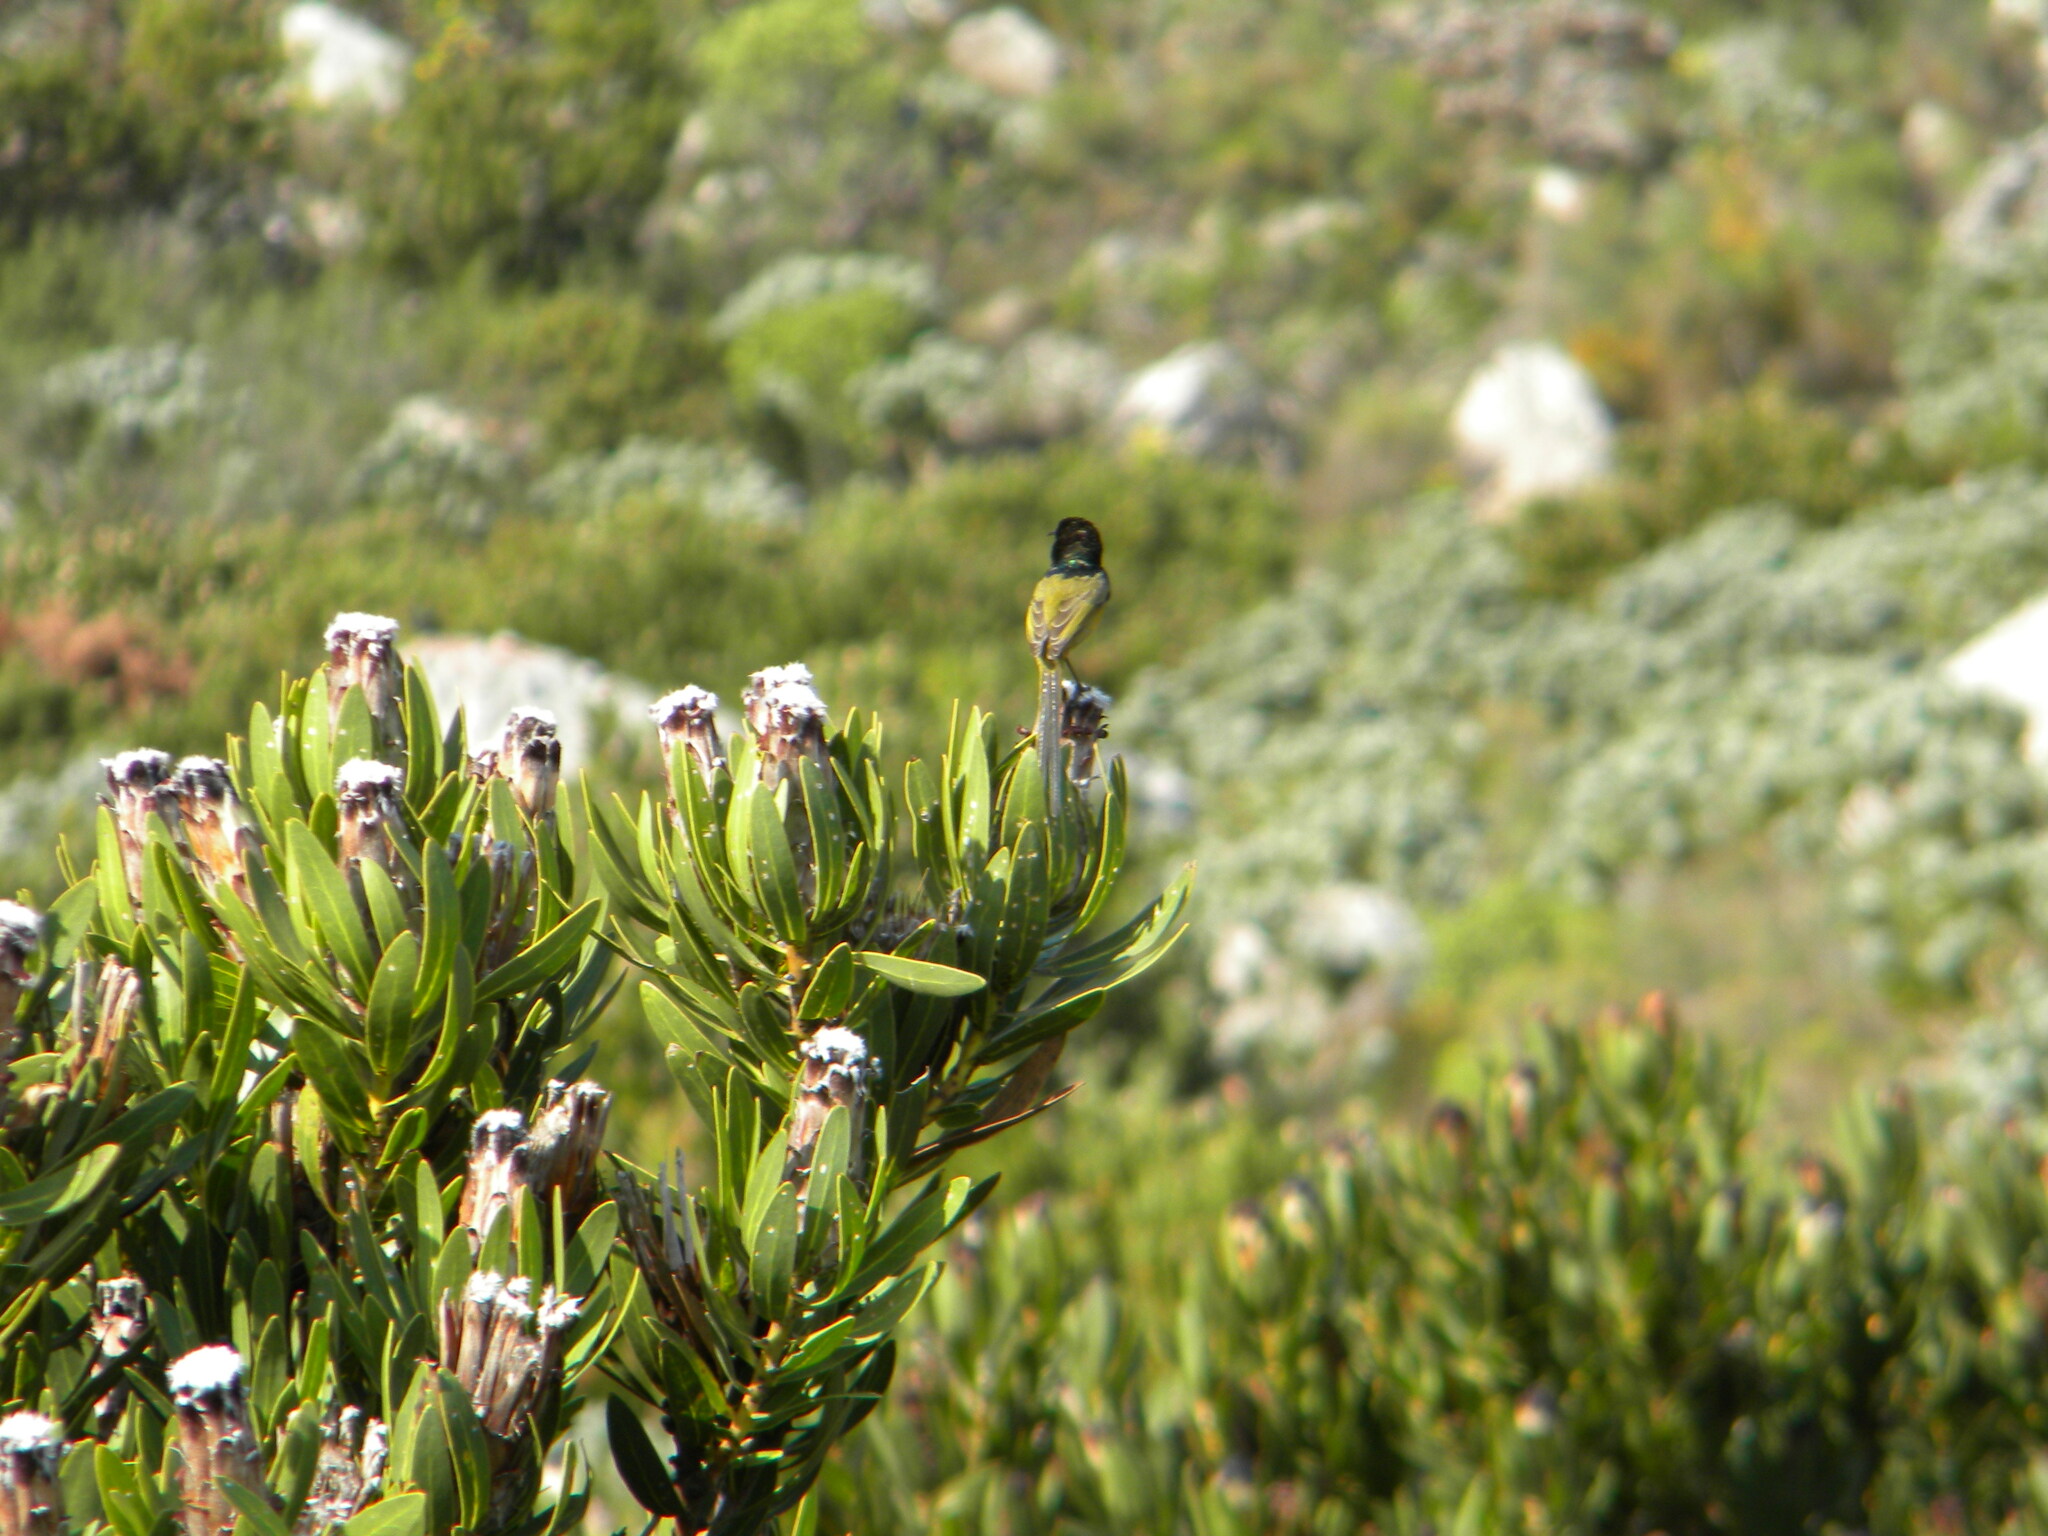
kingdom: Animalia
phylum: Chordata
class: Aves
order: Passeriformes
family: Nectariniidae
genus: Anthobaphes
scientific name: Anthobaphes violacea
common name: Orange-breasted sunbird
